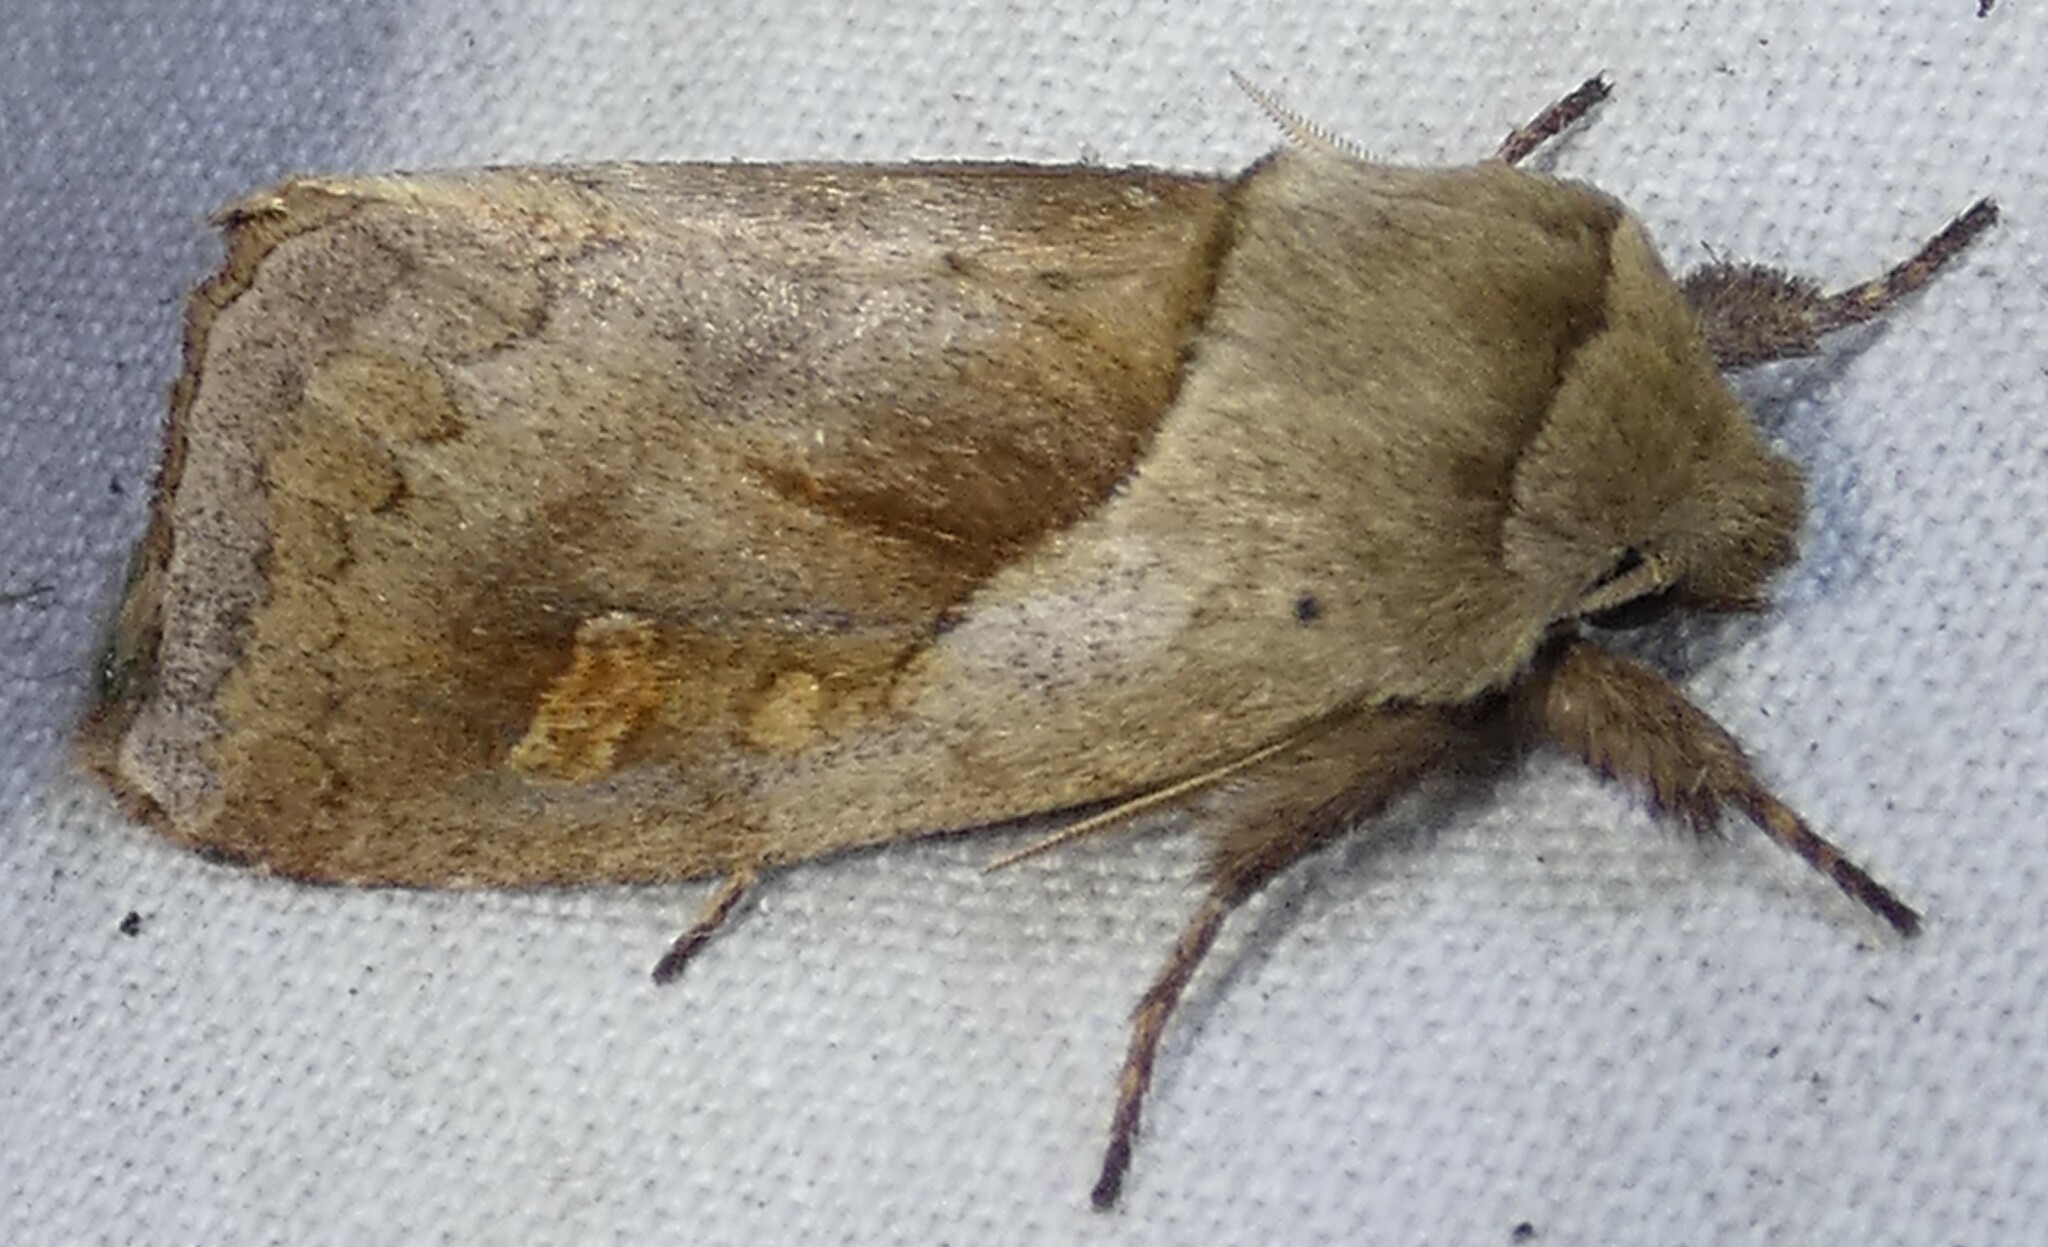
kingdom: Animalia
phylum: Arthropoda
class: Insecta
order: Lepidoptera
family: Noctuidae
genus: Bellura
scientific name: Bellura densa
